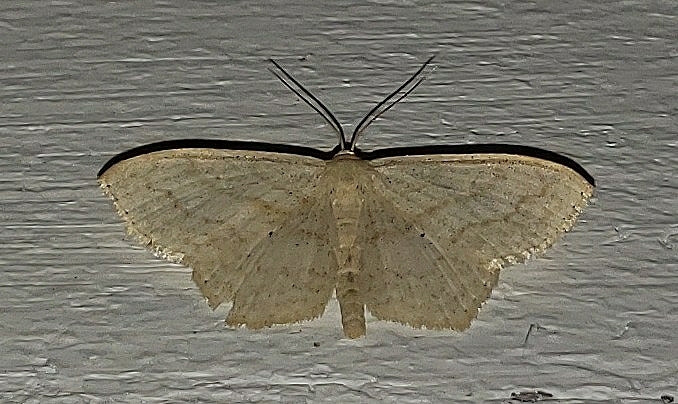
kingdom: Animalia
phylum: Arthropoda
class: Insecta
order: Lepidoptera
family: Geometridae
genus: Scopula
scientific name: Scopula limboundata
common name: Large lace border
